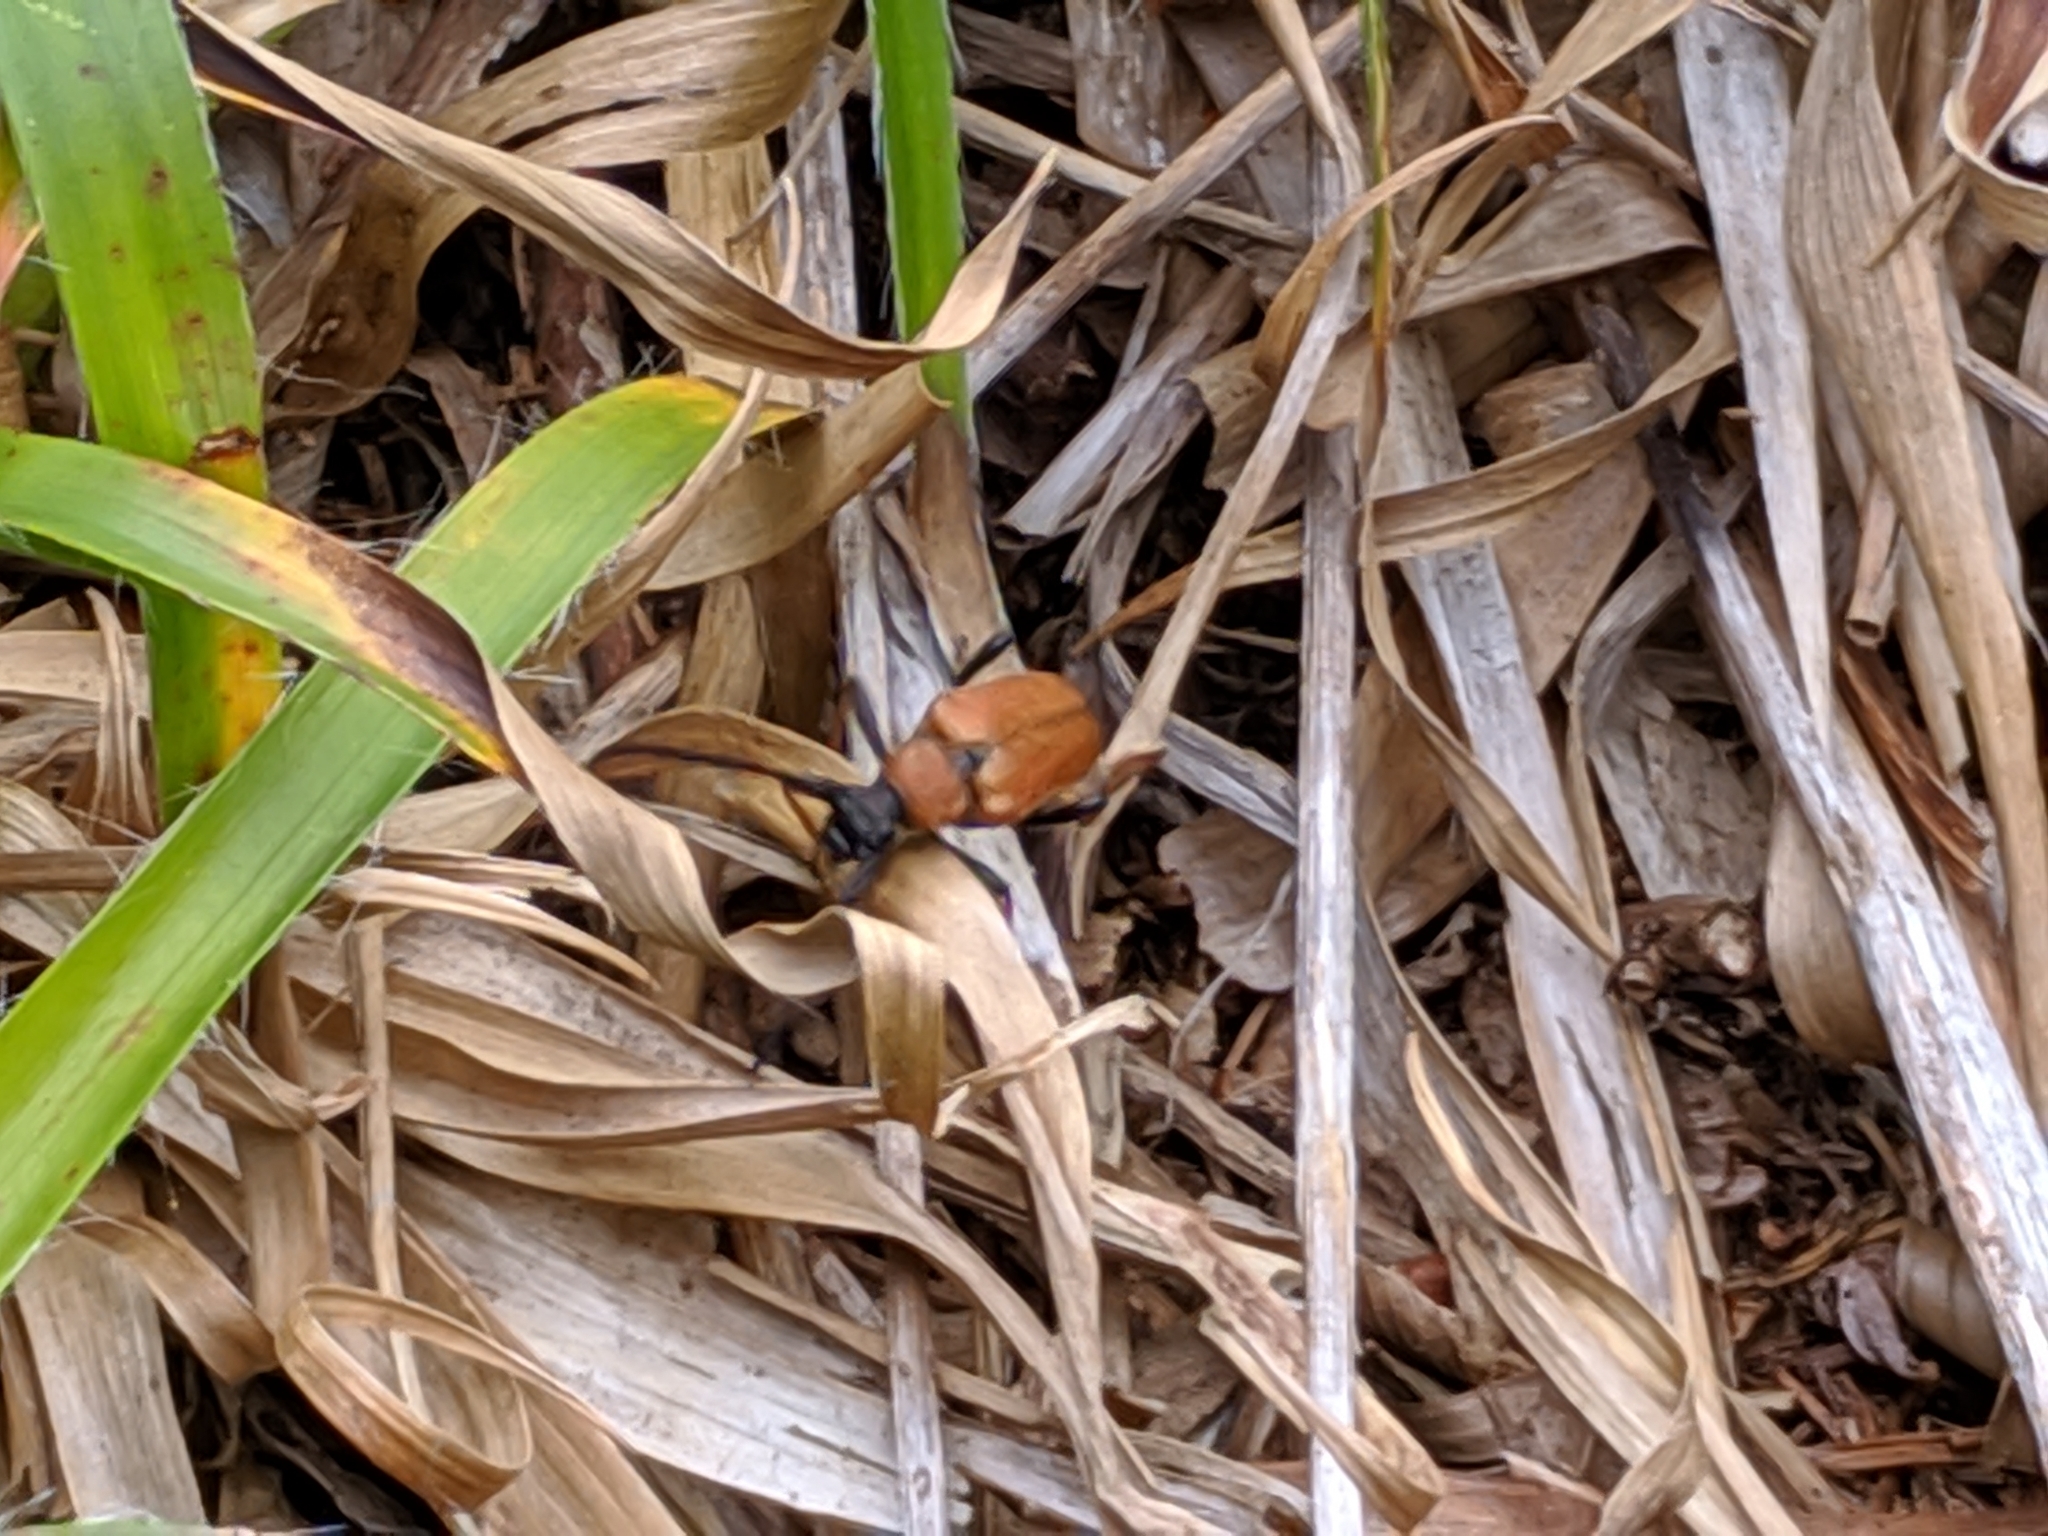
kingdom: Animalia
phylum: Arthropoda
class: Insecta
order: Coleoptera
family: Cerambycidae
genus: Stictoleptura
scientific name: Stictoleptura rubra
